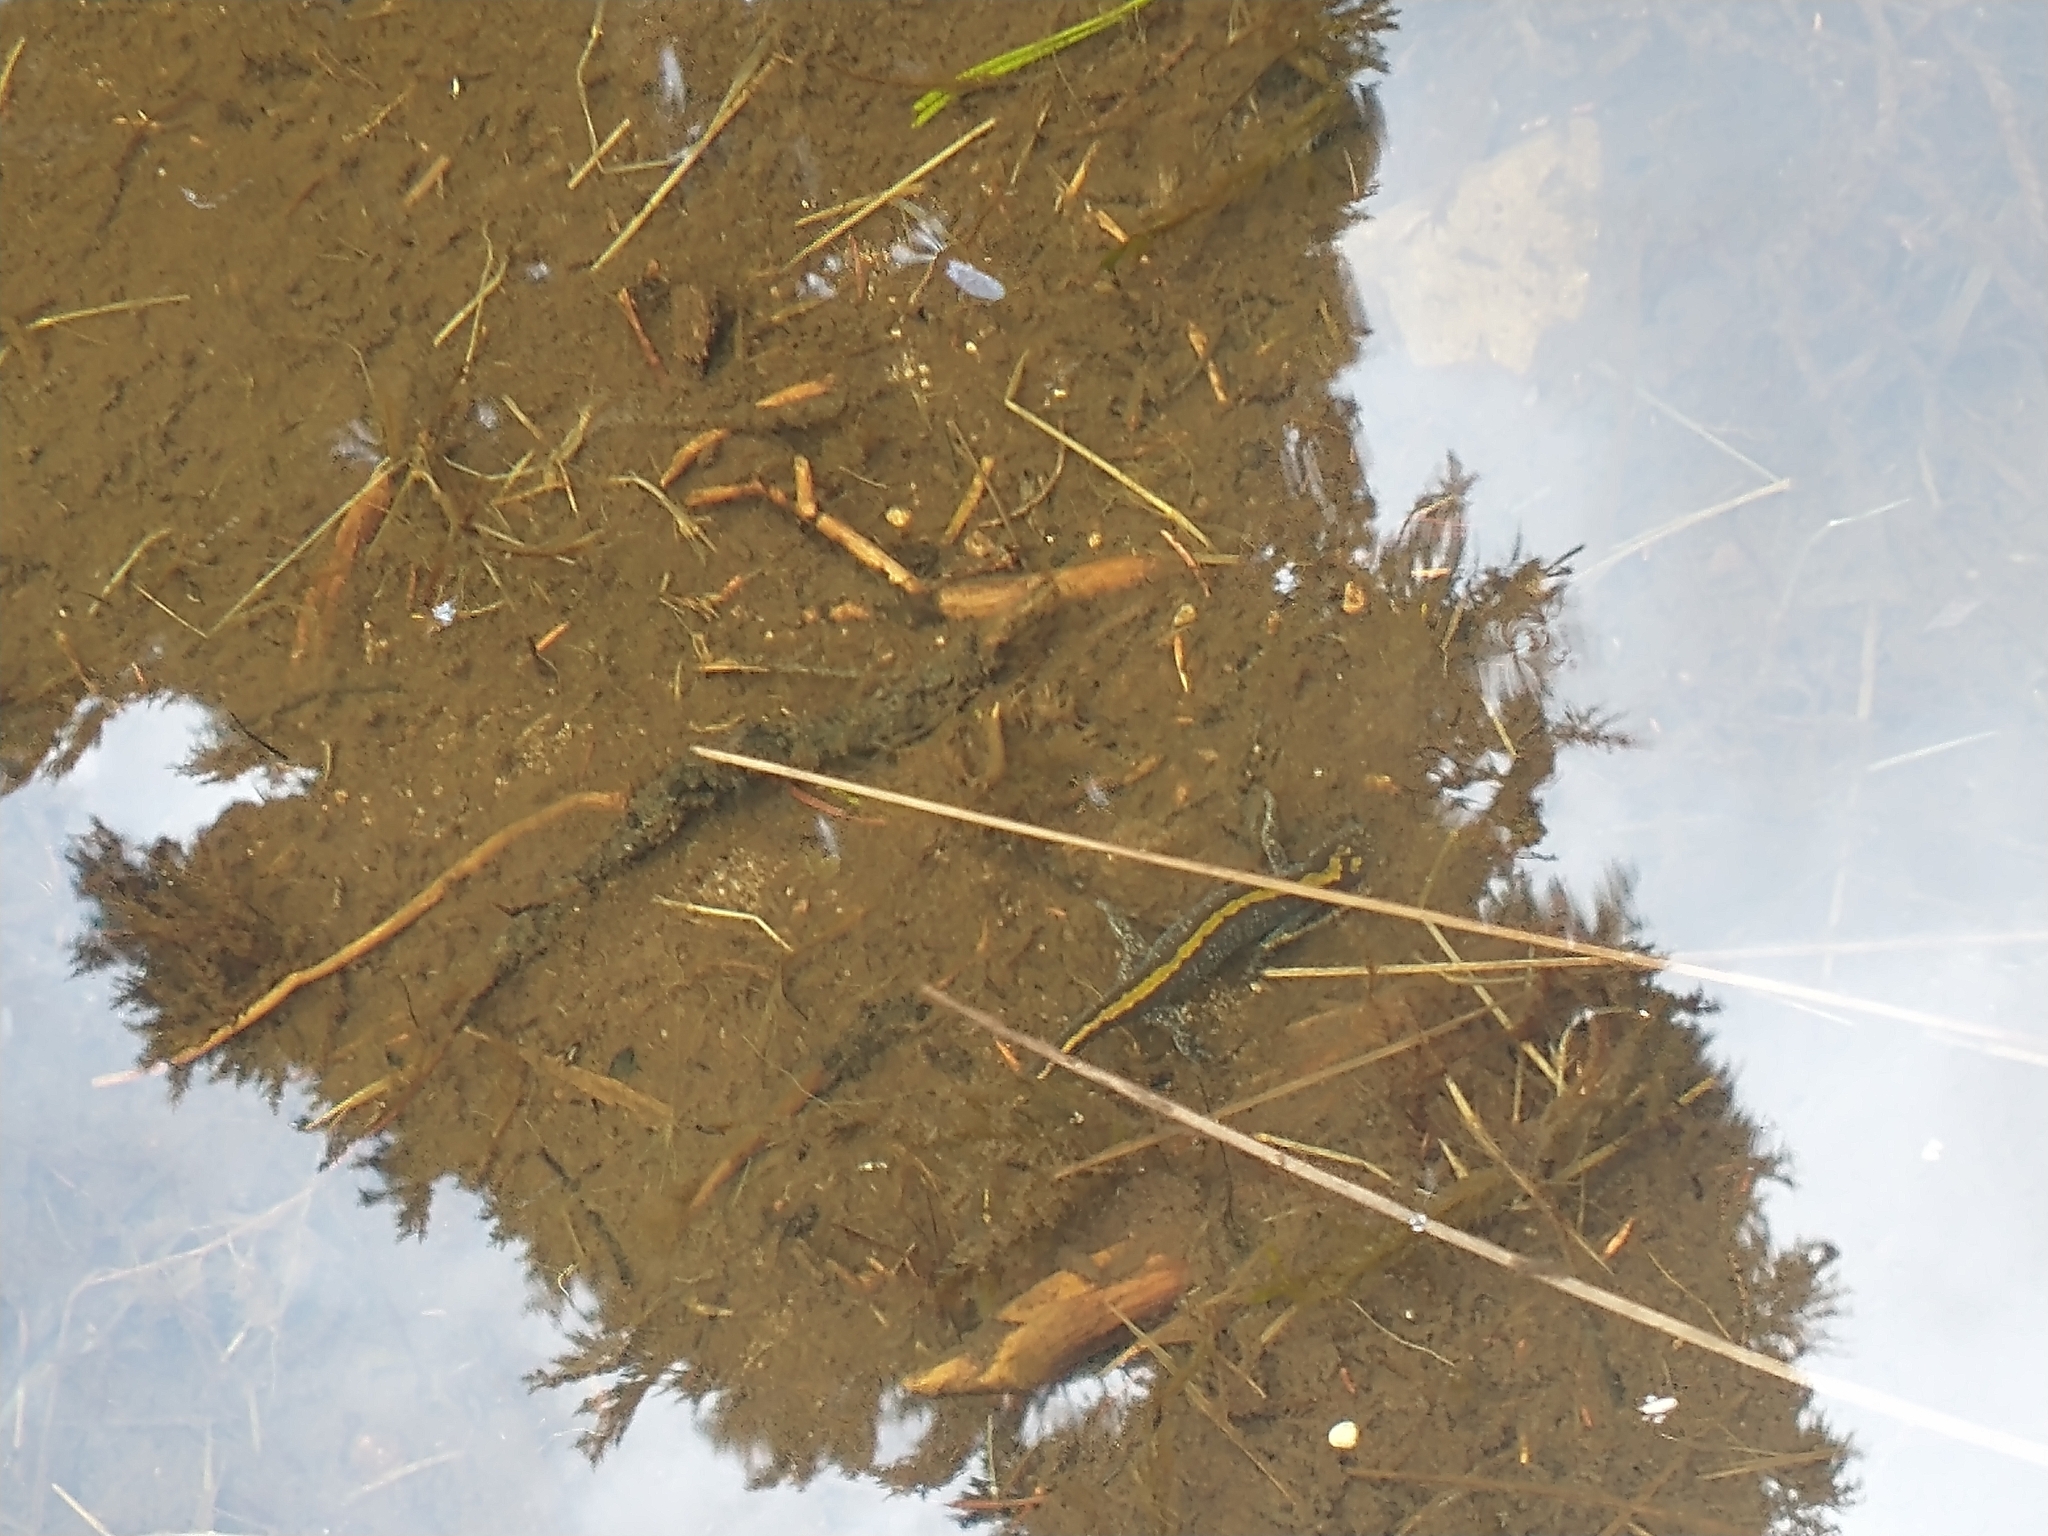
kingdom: Animalia
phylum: Chordata
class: Amphibia
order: Caudata
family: Ambystomatidae
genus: Ambystoma
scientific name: Ambystoma macrodactylum
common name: Long-toed salamander
